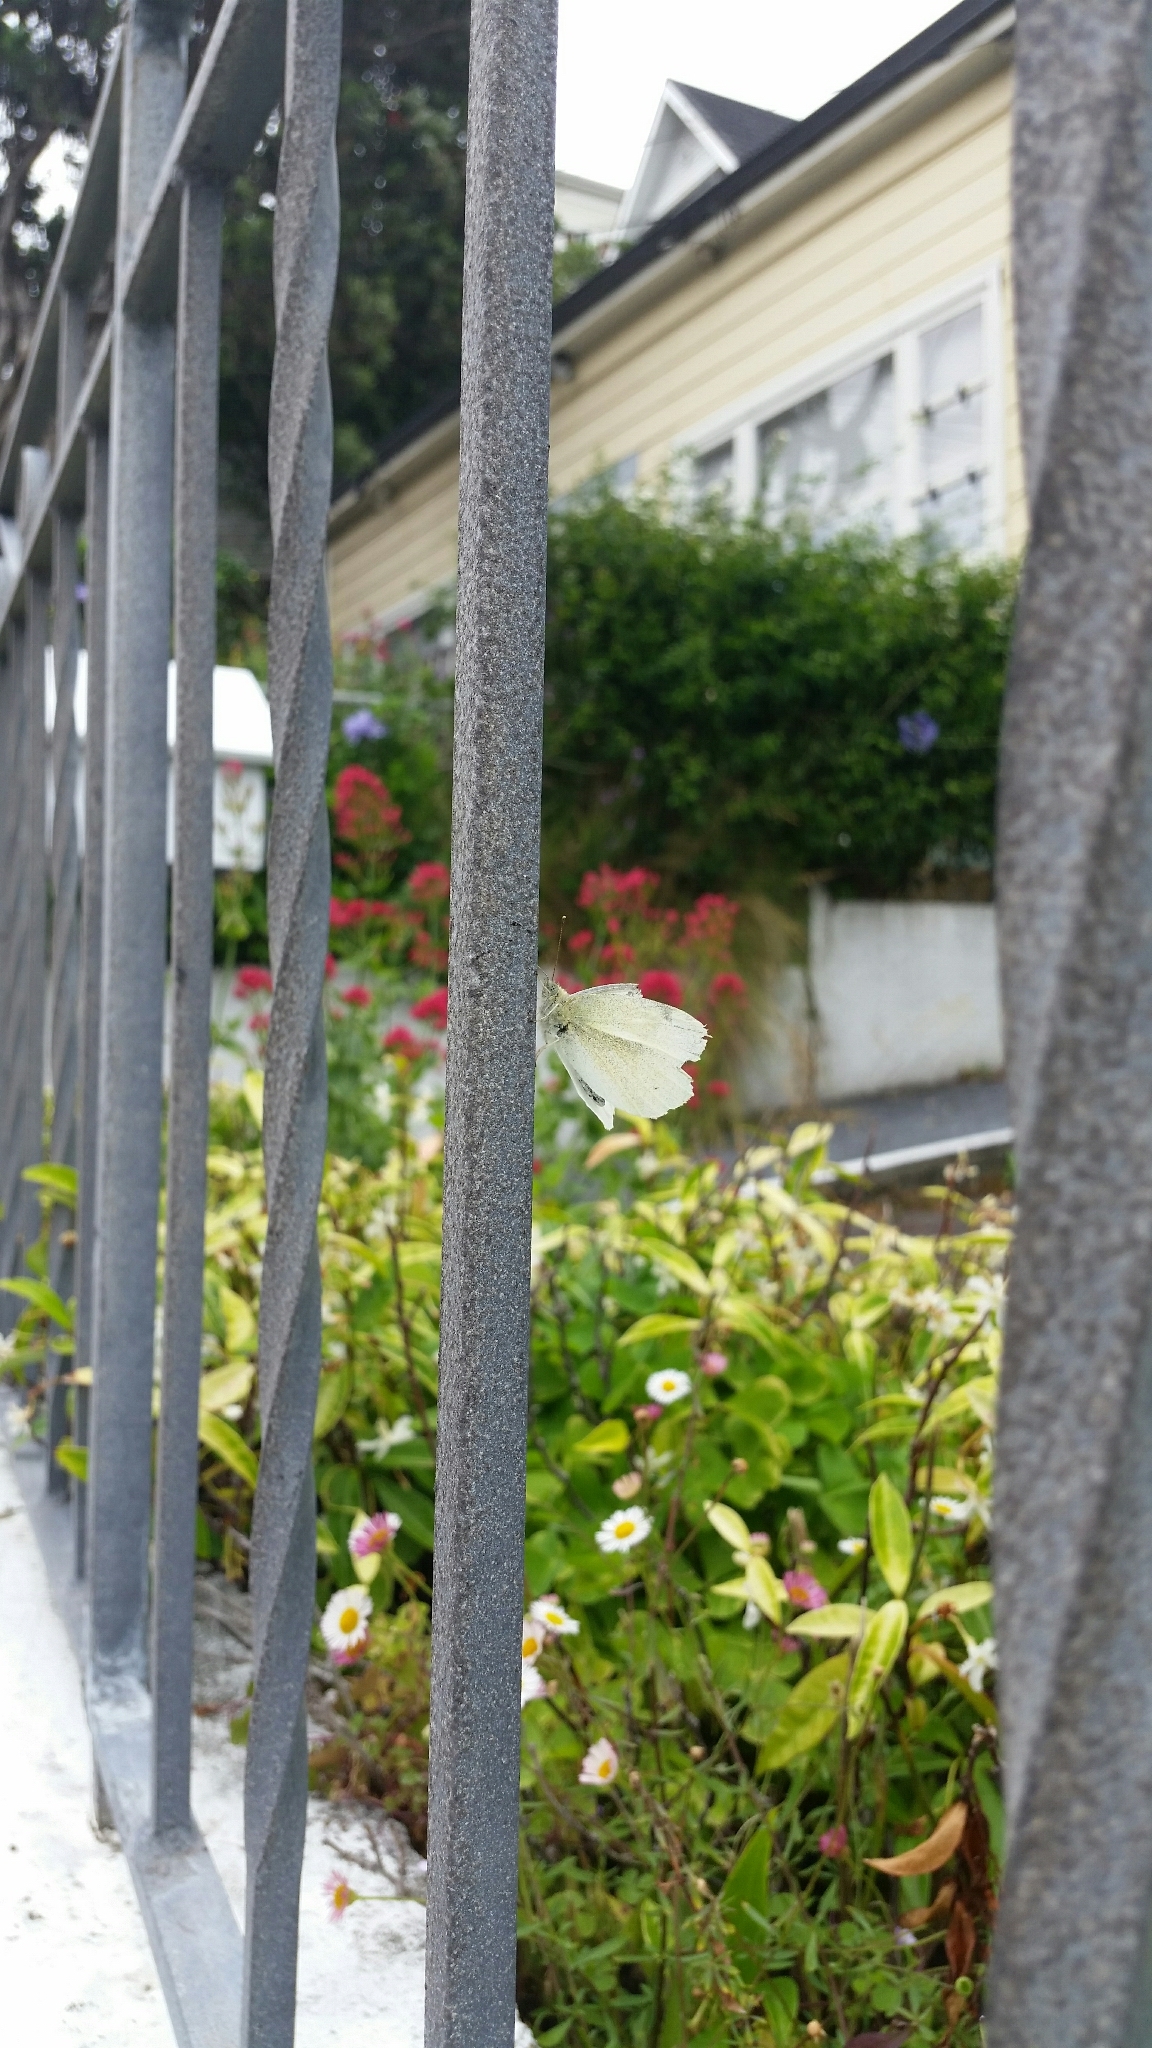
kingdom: Animalia
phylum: Arthropoda
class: Insecta
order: Lepidoptera
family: Pieridae
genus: Pieris
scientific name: Pieris rapae
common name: Small white
